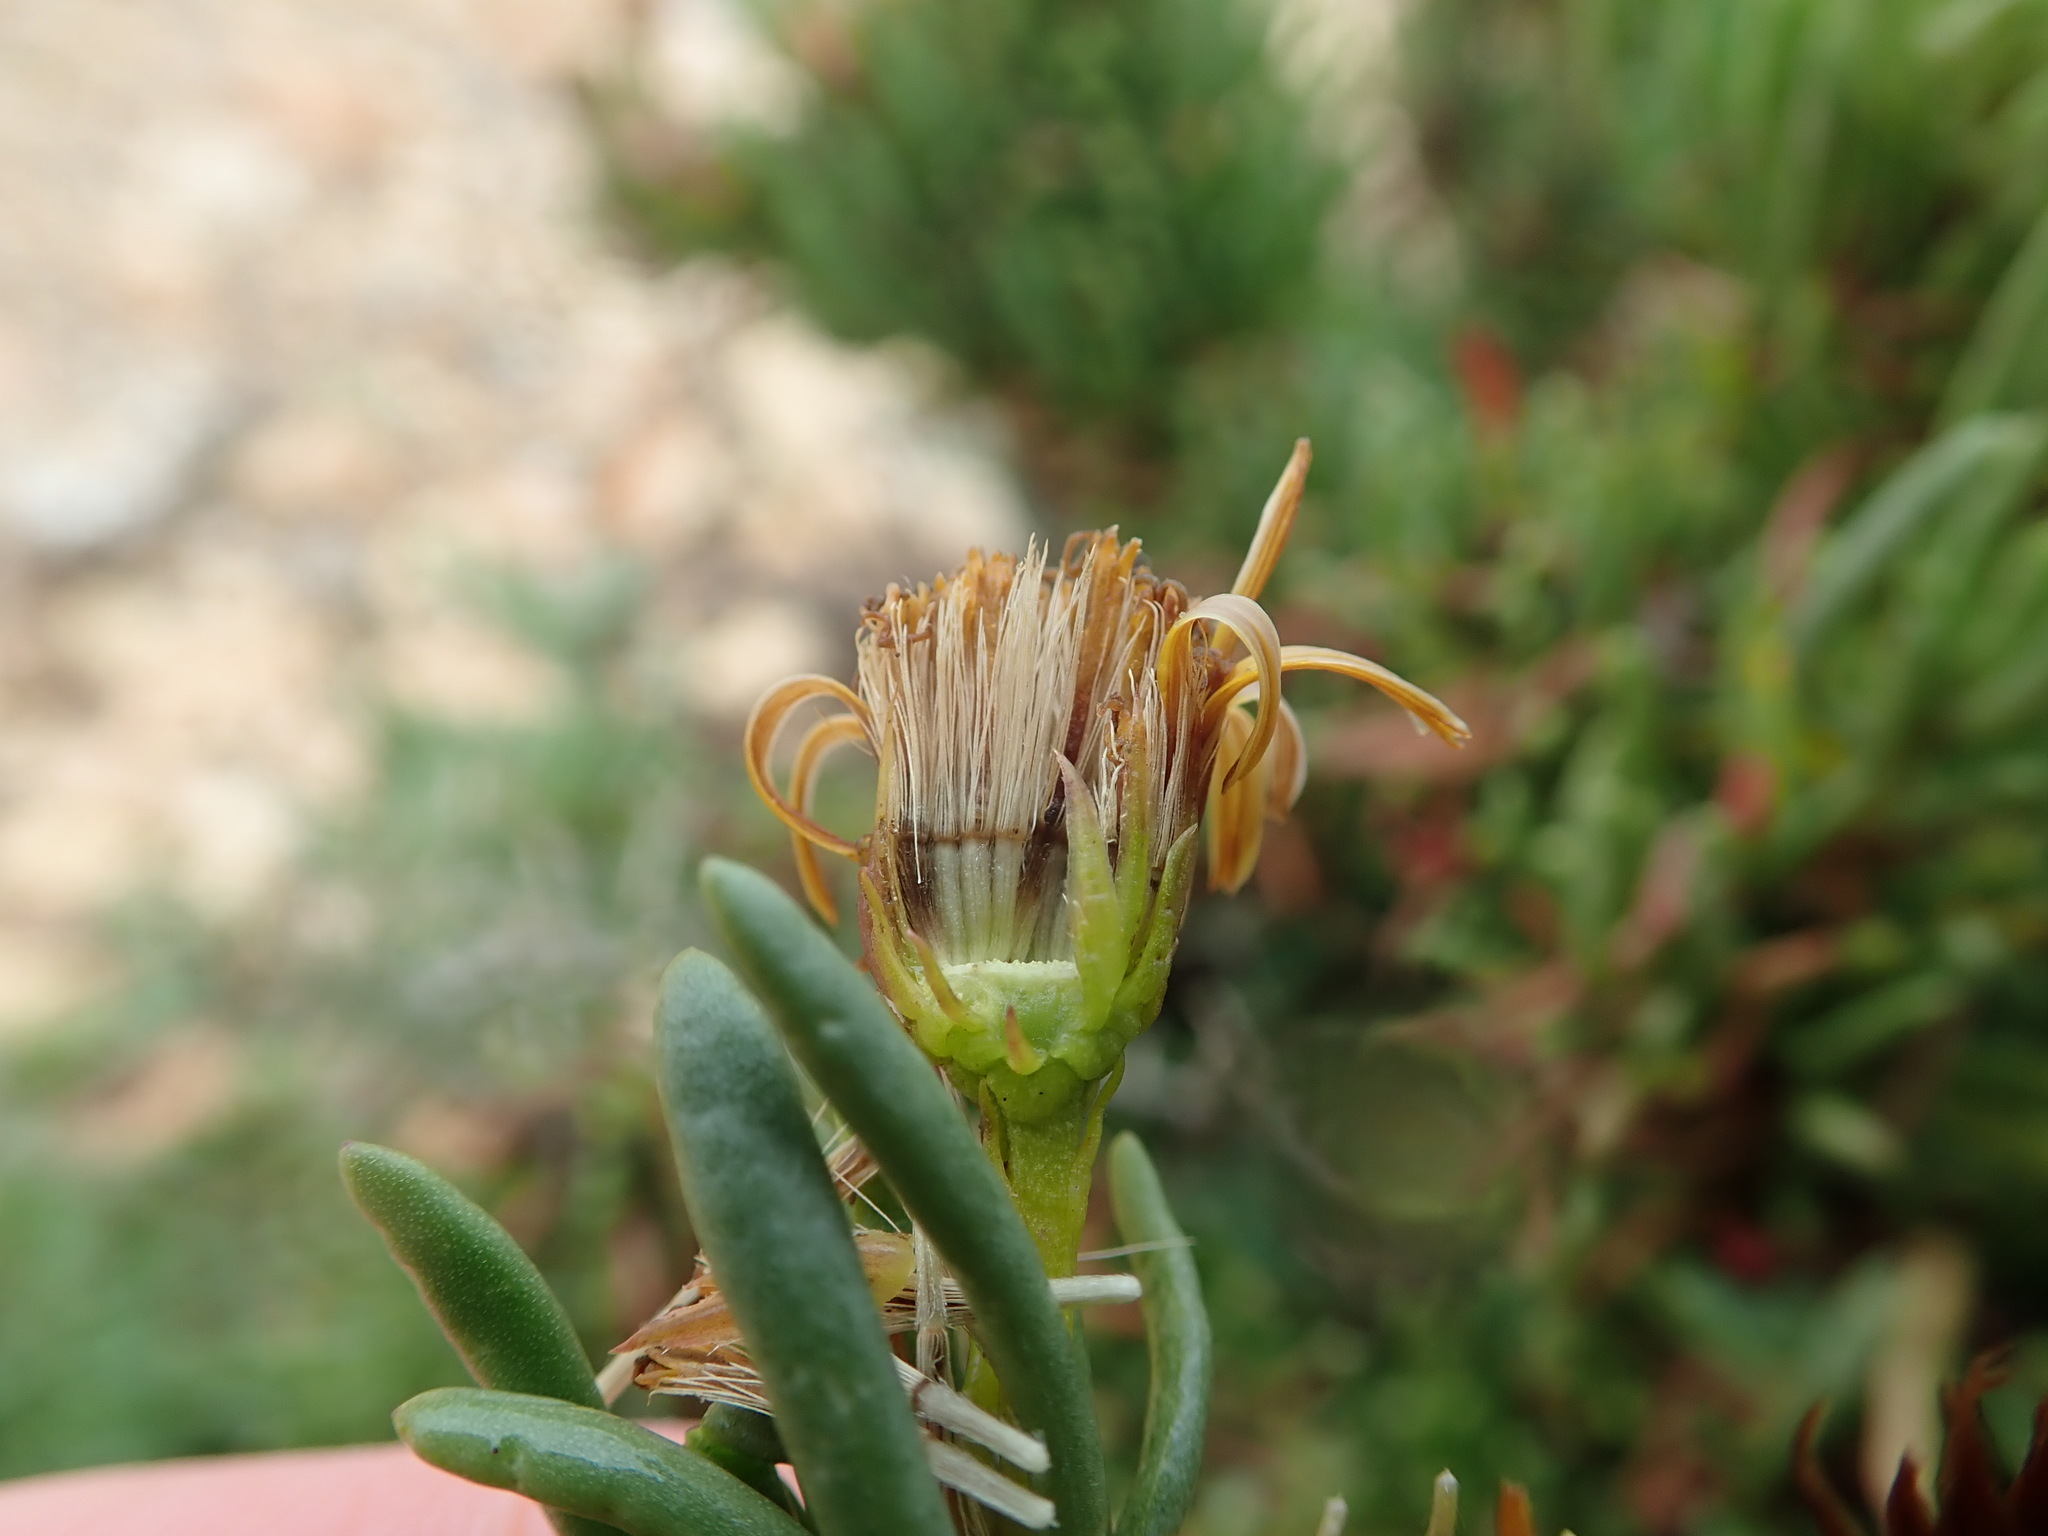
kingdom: Plantae
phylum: Tracheophyta
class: Magnoliopsida
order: Asterales
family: Asteraceae
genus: Limbarda
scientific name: Limbarda crithmoides
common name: Golden samphire
